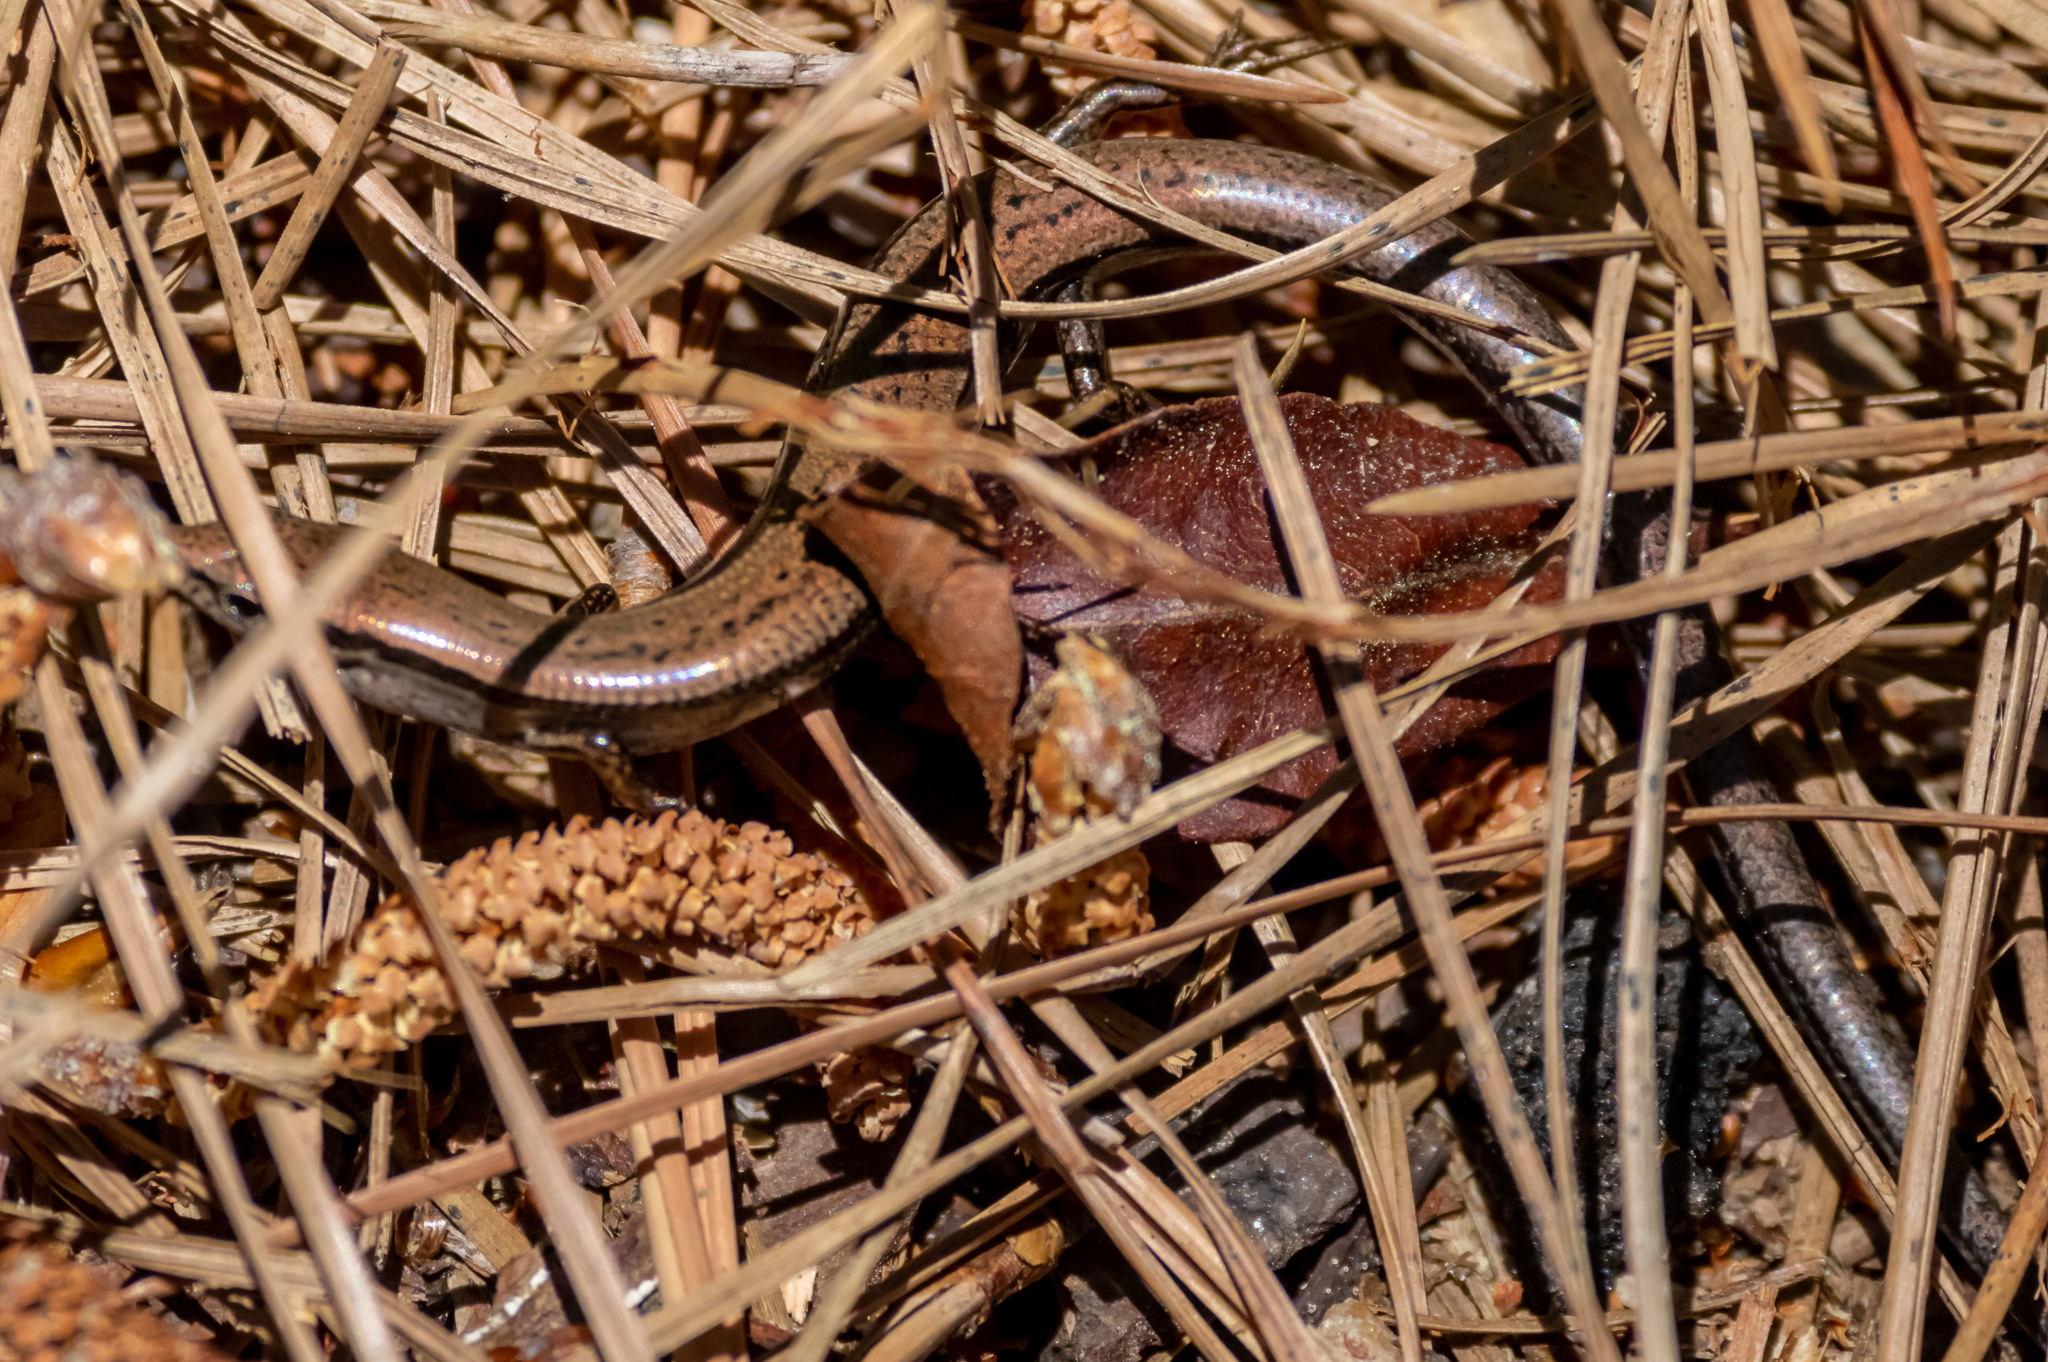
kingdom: Animalia
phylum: Chordata
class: Squamata
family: Scincidae
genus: Scincella
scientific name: Scincella lateralis
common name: Ground skink
